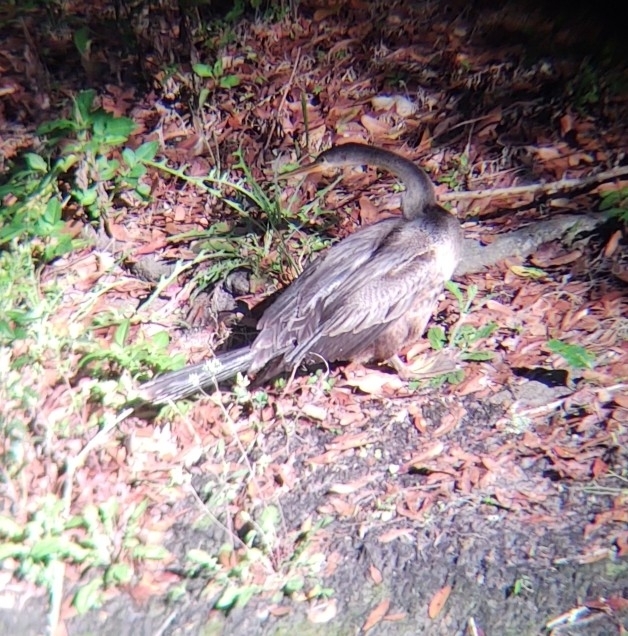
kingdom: Animalia
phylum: Chordata
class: Aves
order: Suliformes
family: Anhingidae
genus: Anhinga
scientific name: Anhinga anhinga
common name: Anhinga
